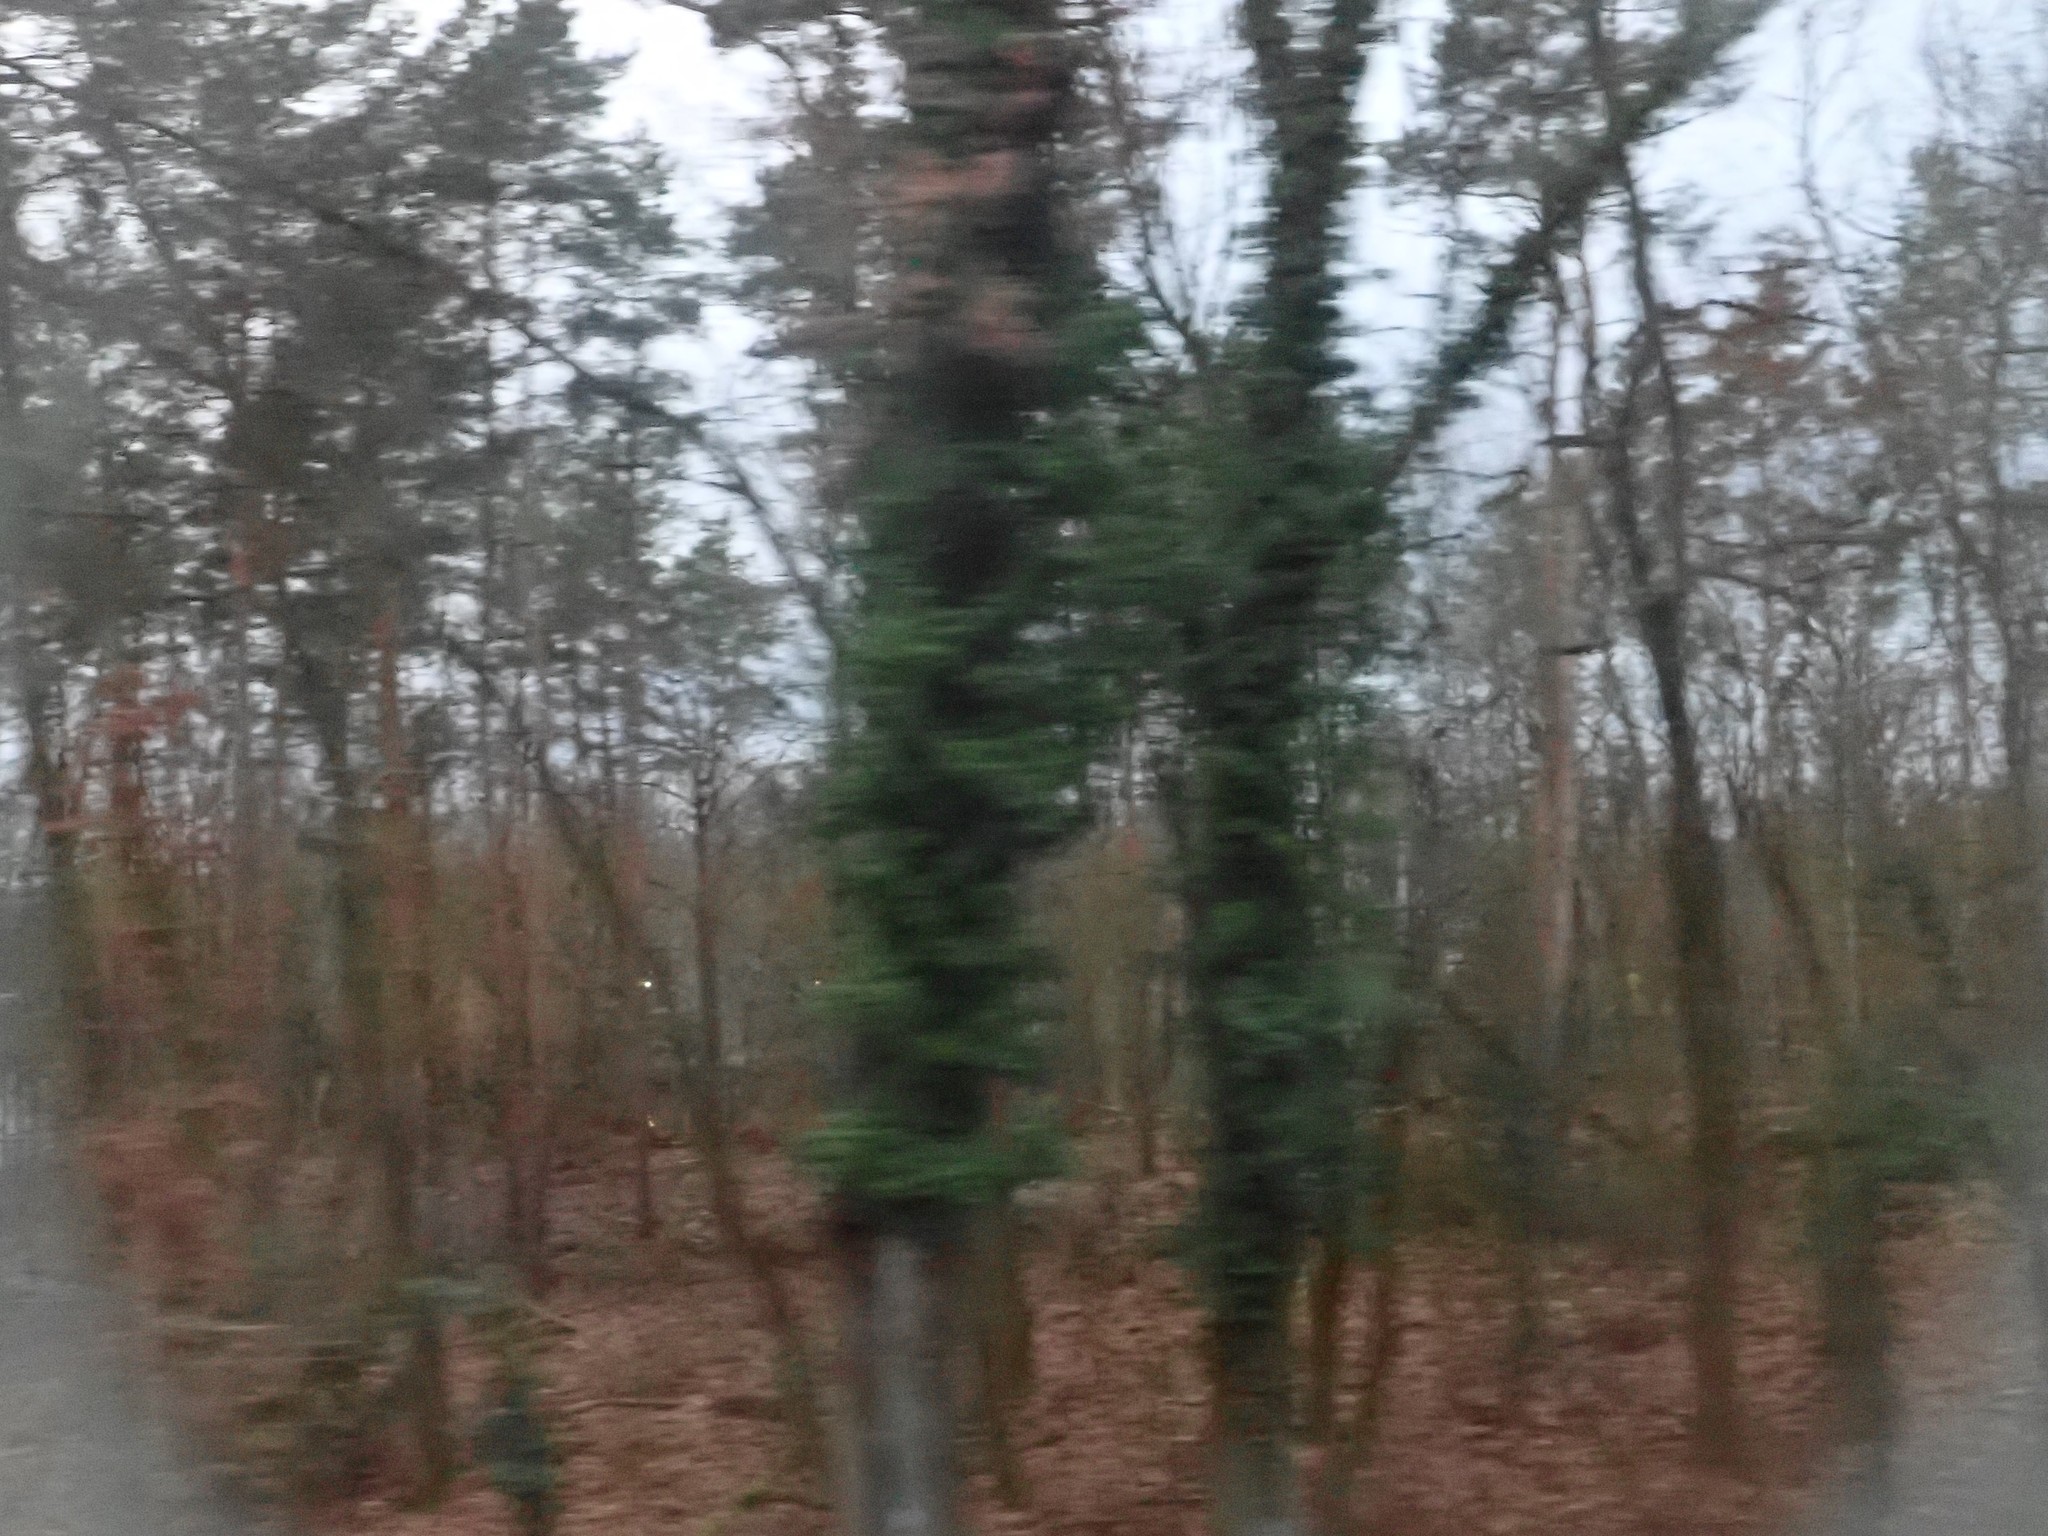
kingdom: Plantae
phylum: Tracheophyta
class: Magnoliopsida
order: Apiales
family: Araliaceae
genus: Hedera
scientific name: Hedera helix
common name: Ivy
